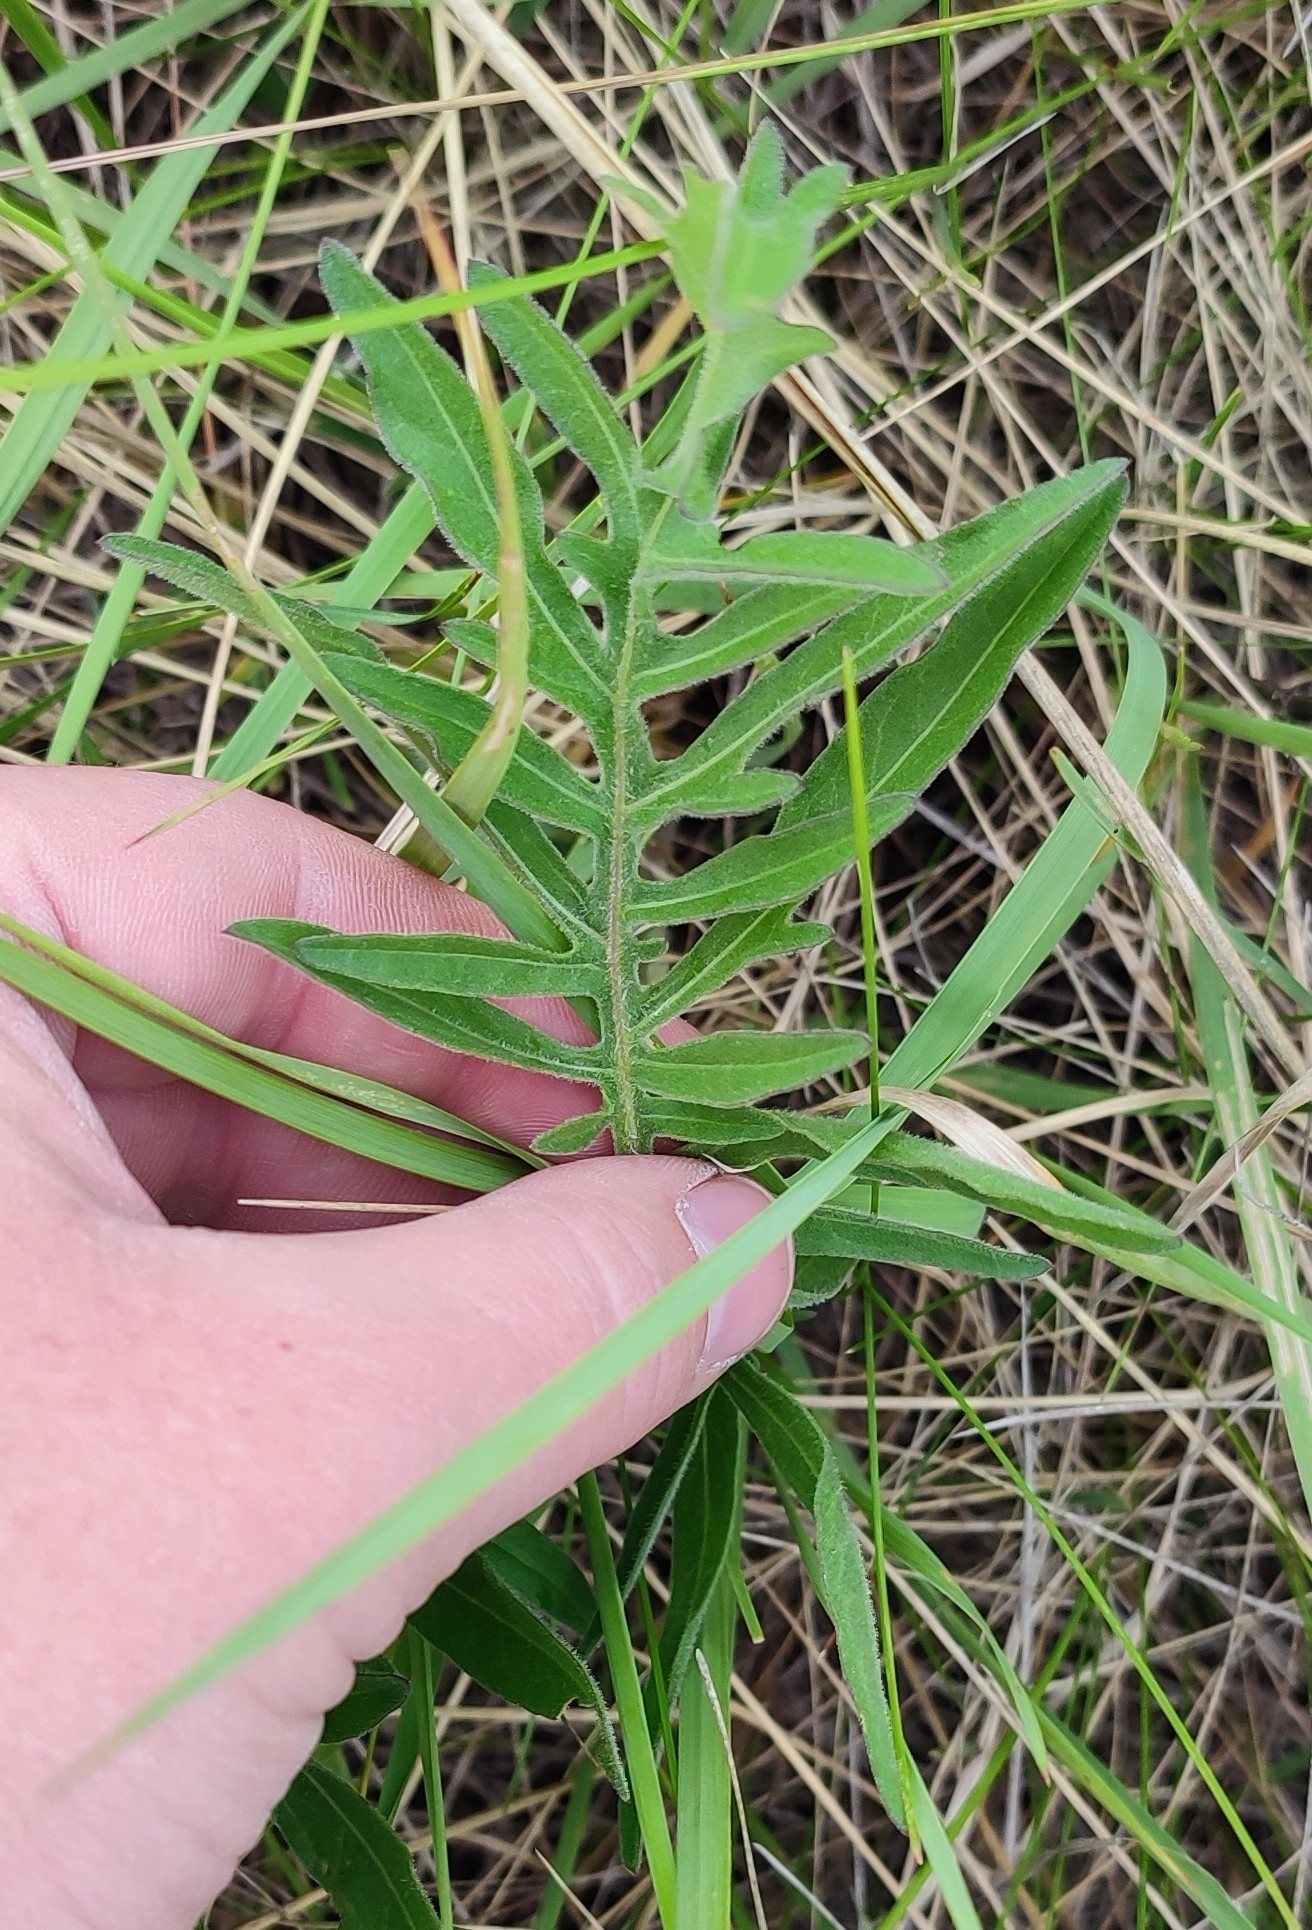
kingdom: Plantae
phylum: Tracheophyta
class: Magnoliopsida
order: Asterales
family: Asteraceae
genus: Centaurea
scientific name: Centaurea scabiosa
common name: Greater knapweed
